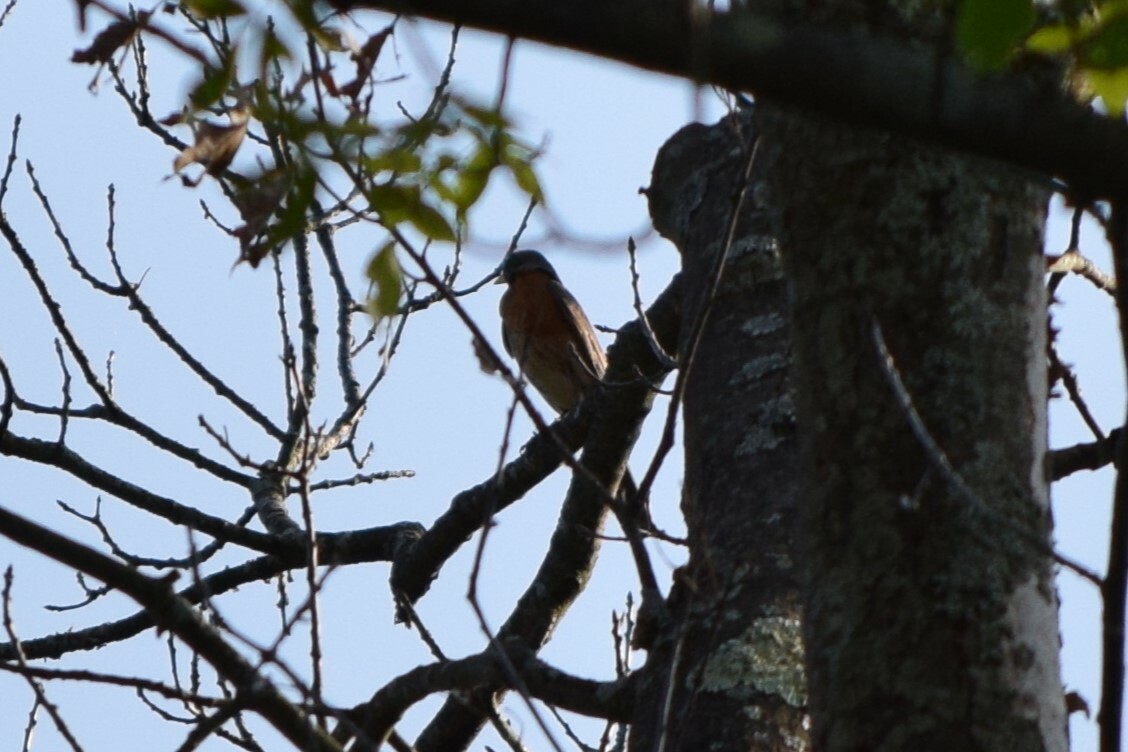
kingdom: Animalia
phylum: Chordata
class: Aves
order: Passeriformes
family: Turdidae
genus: Turdus
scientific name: Turdus migratorius
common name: American robin
